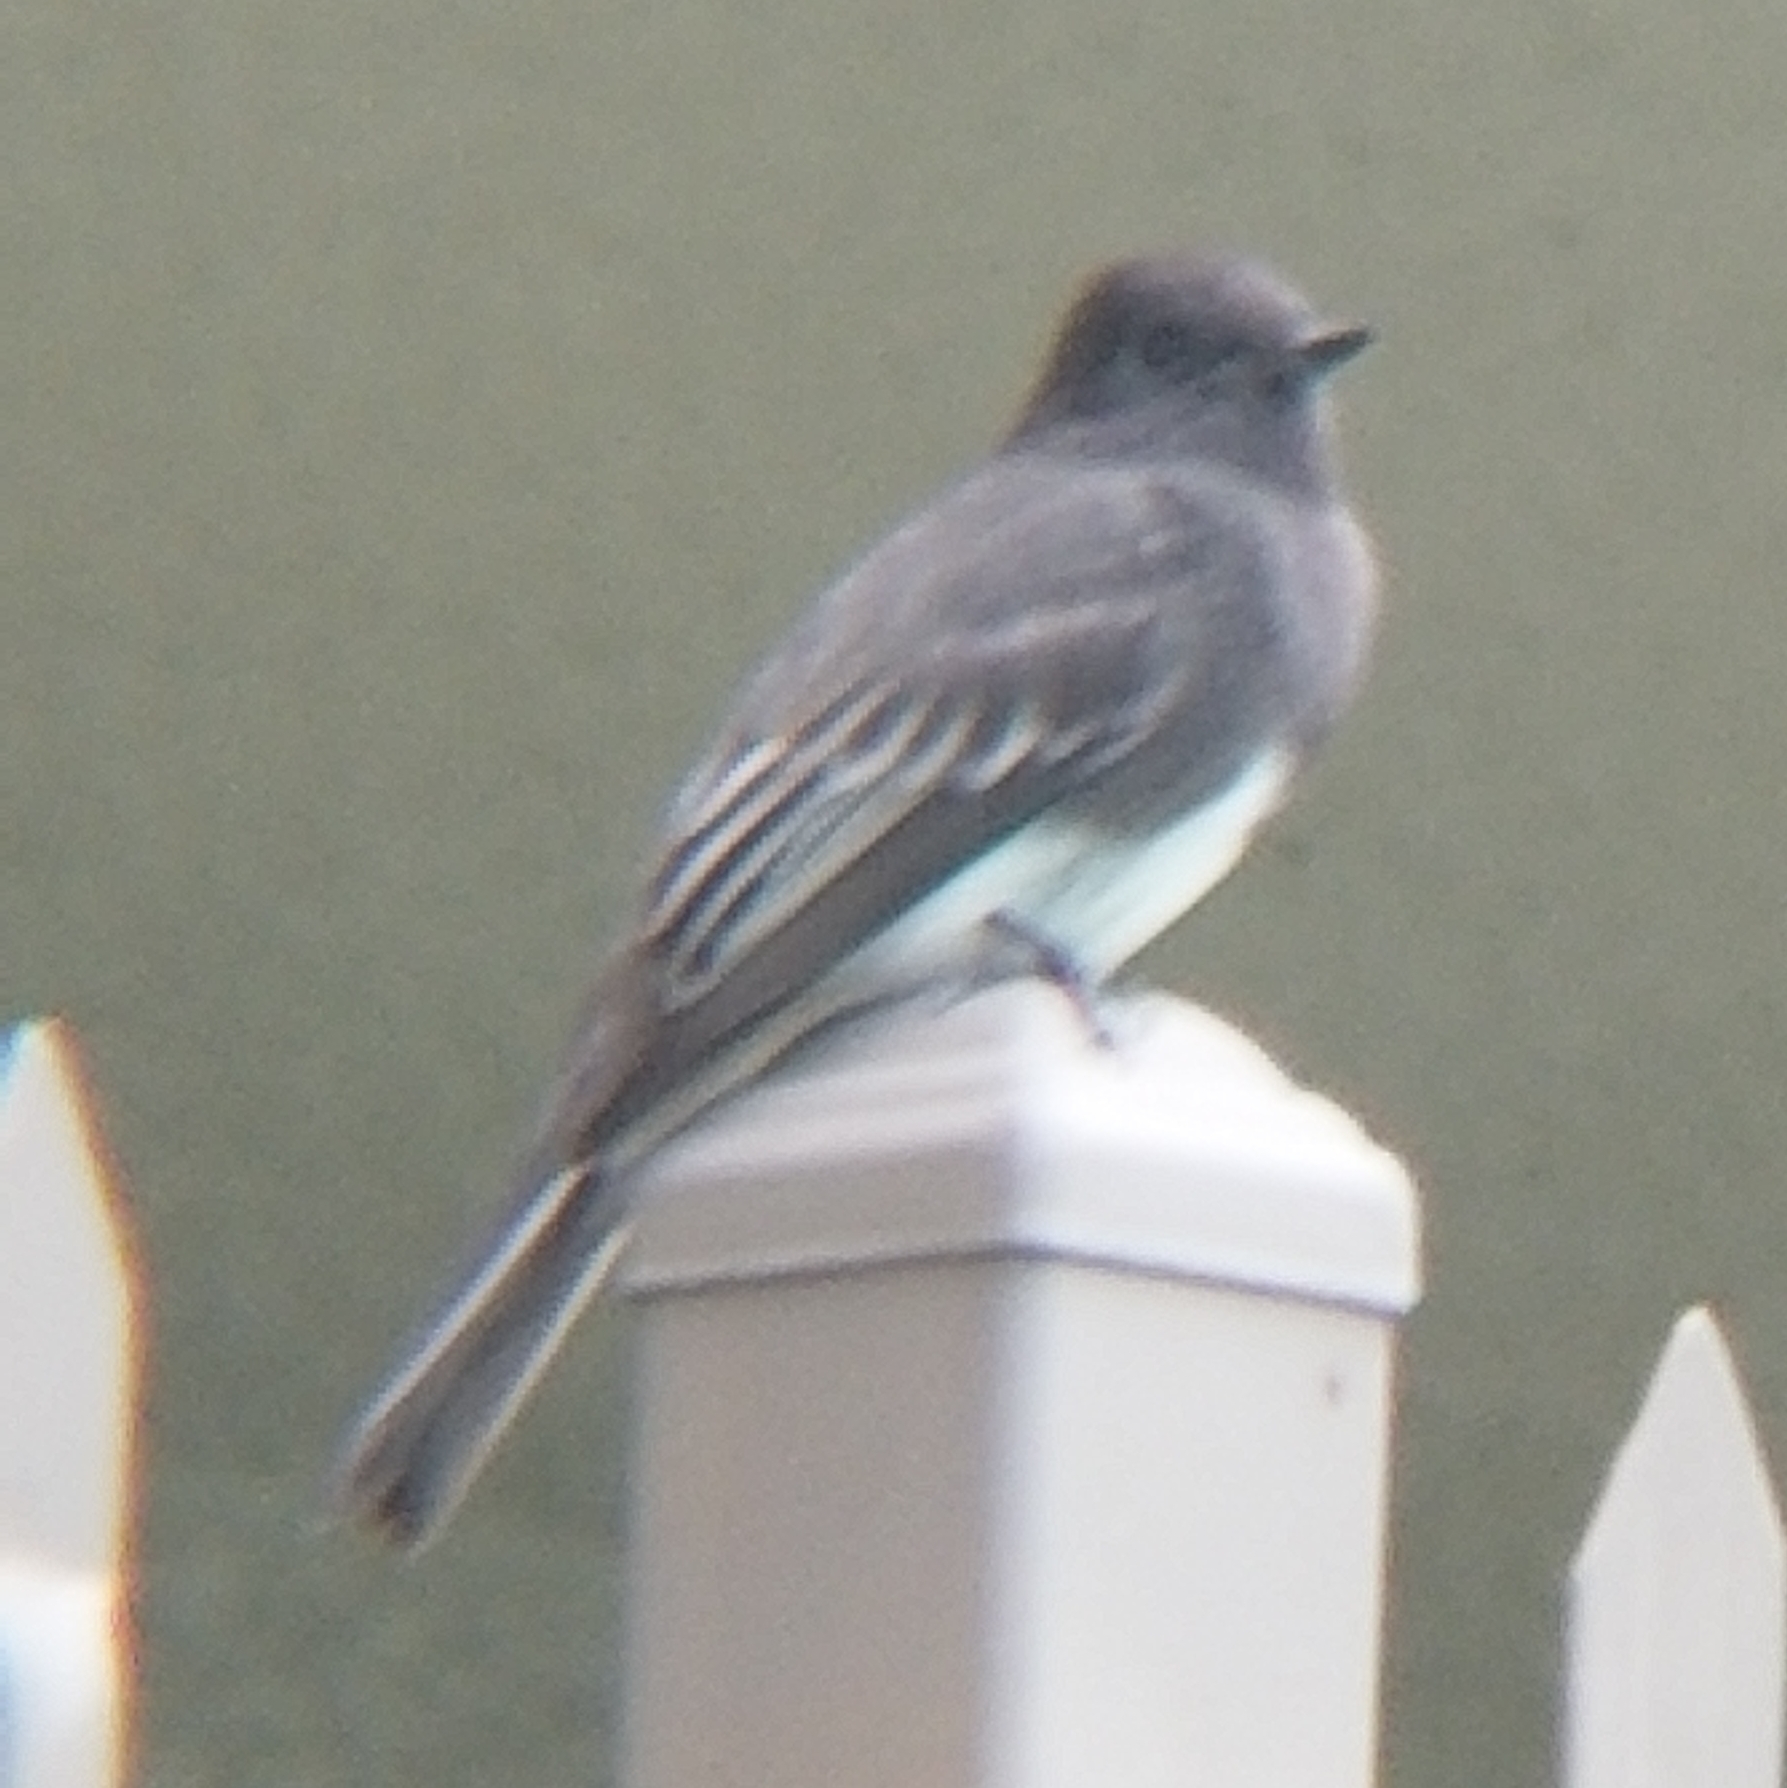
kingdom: Animalia
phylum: Chordata
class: Aves
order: Passeriformes
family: Tyrannidae
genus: Sayornis
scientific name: Sayornis nigricans
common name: Black phoebe
